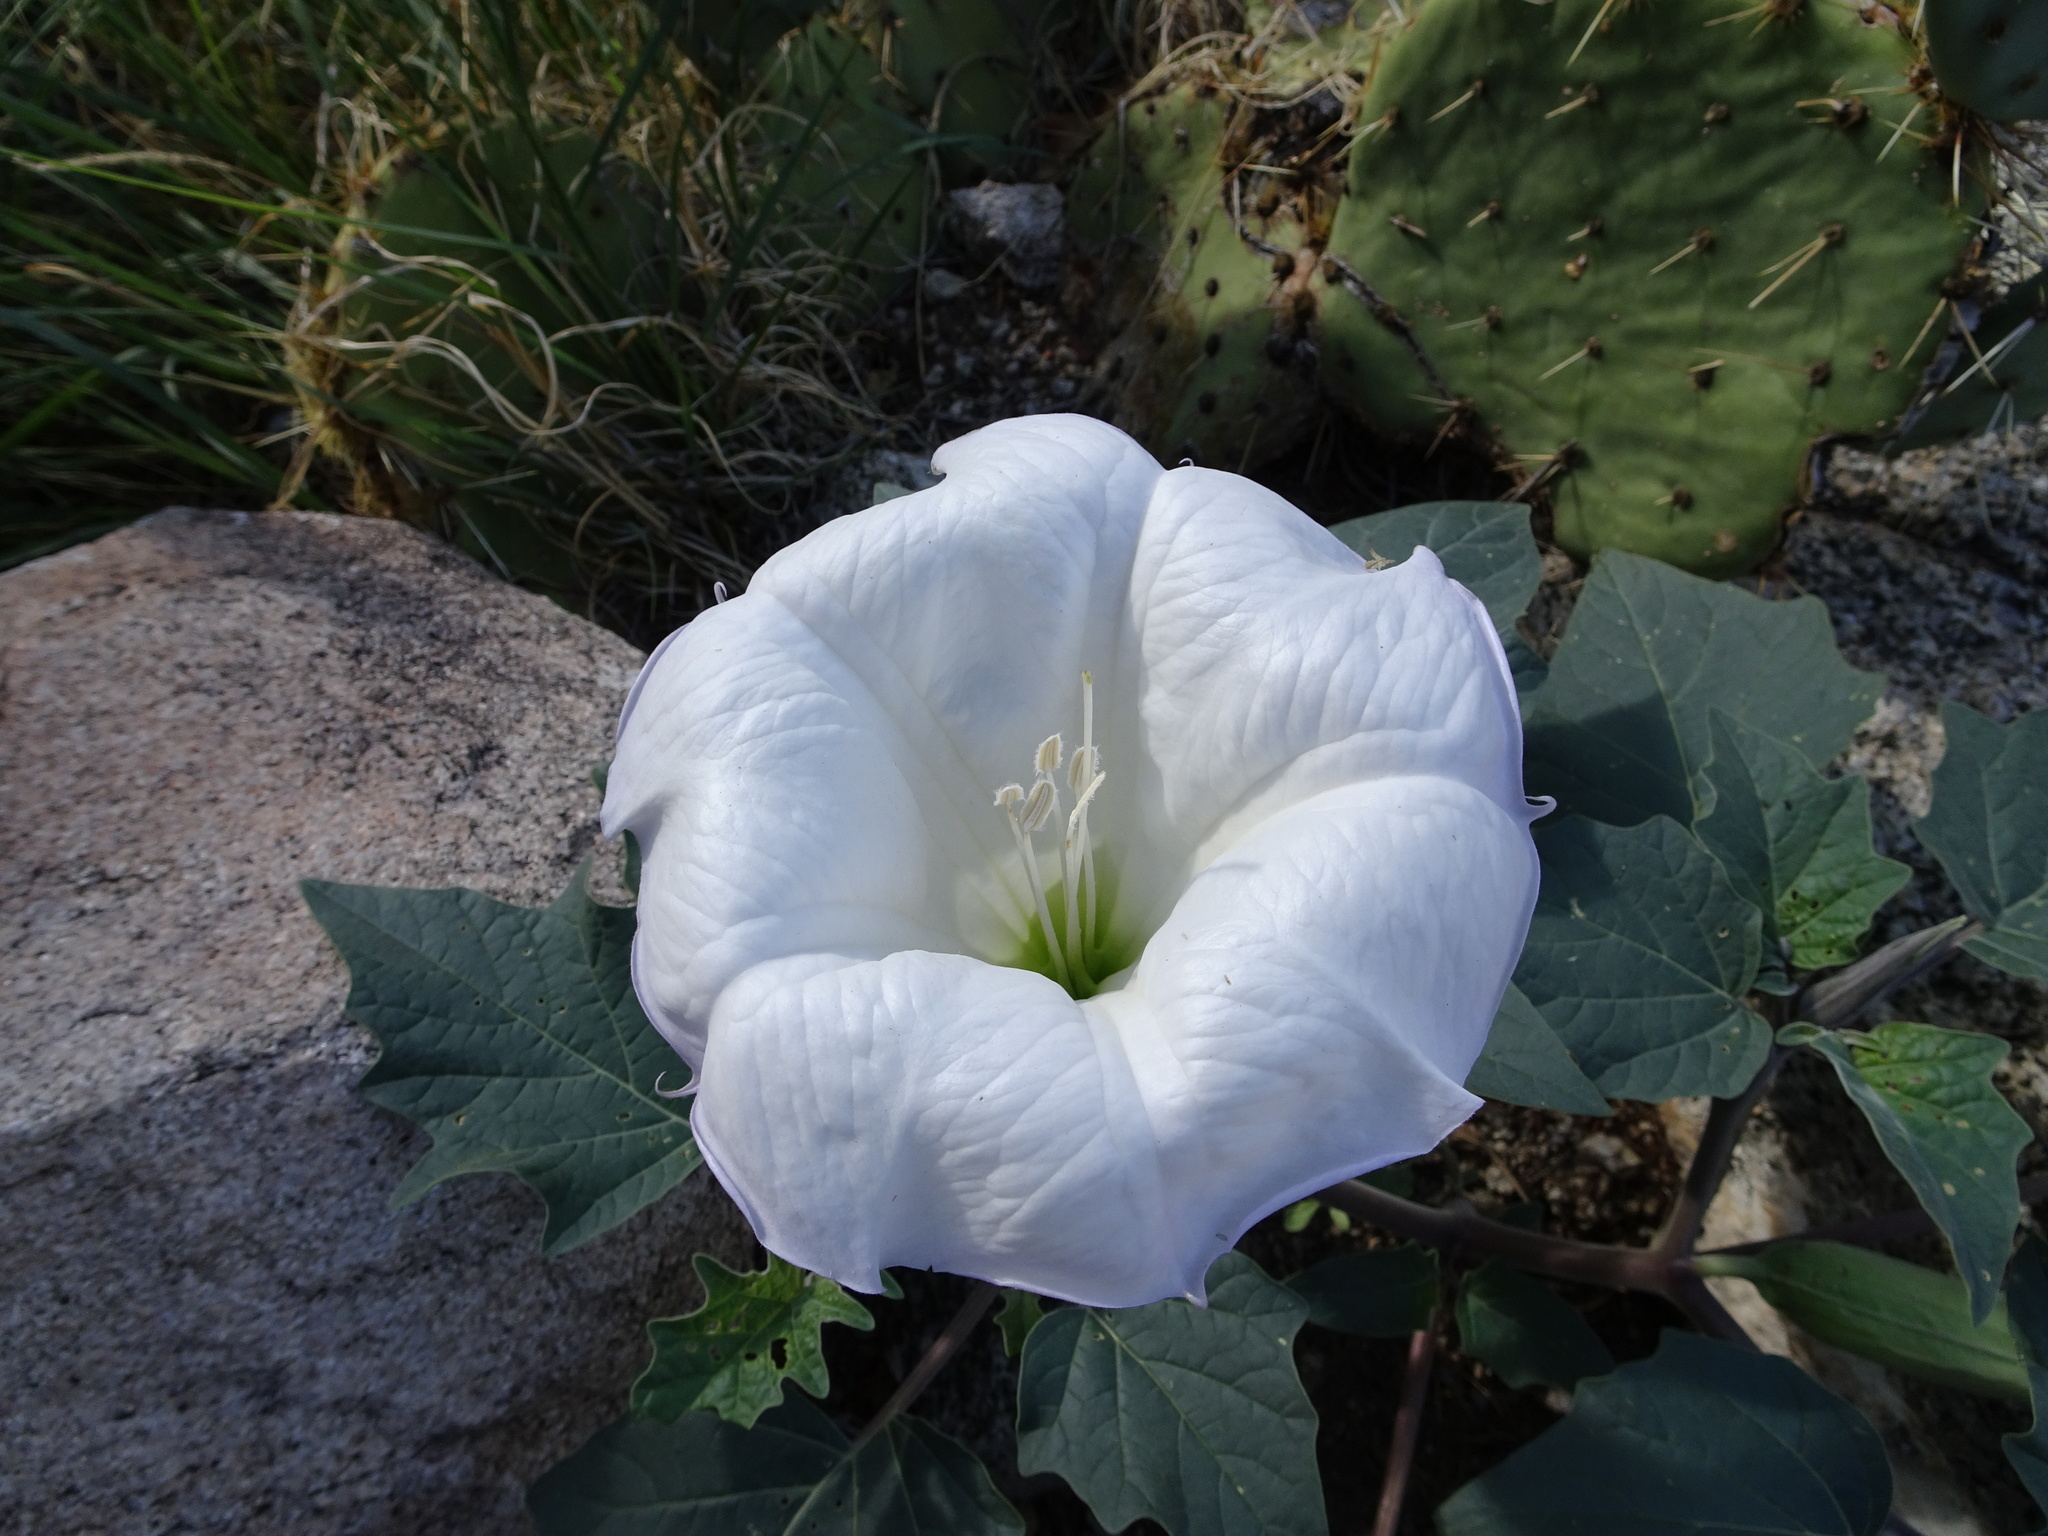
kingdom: Plantae
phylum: Tracheophyta
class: Magnoliopsida
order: Solanales
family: Solanaceae
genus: Datura
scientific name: Datura wrightii
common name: Sacred thorn-apple
